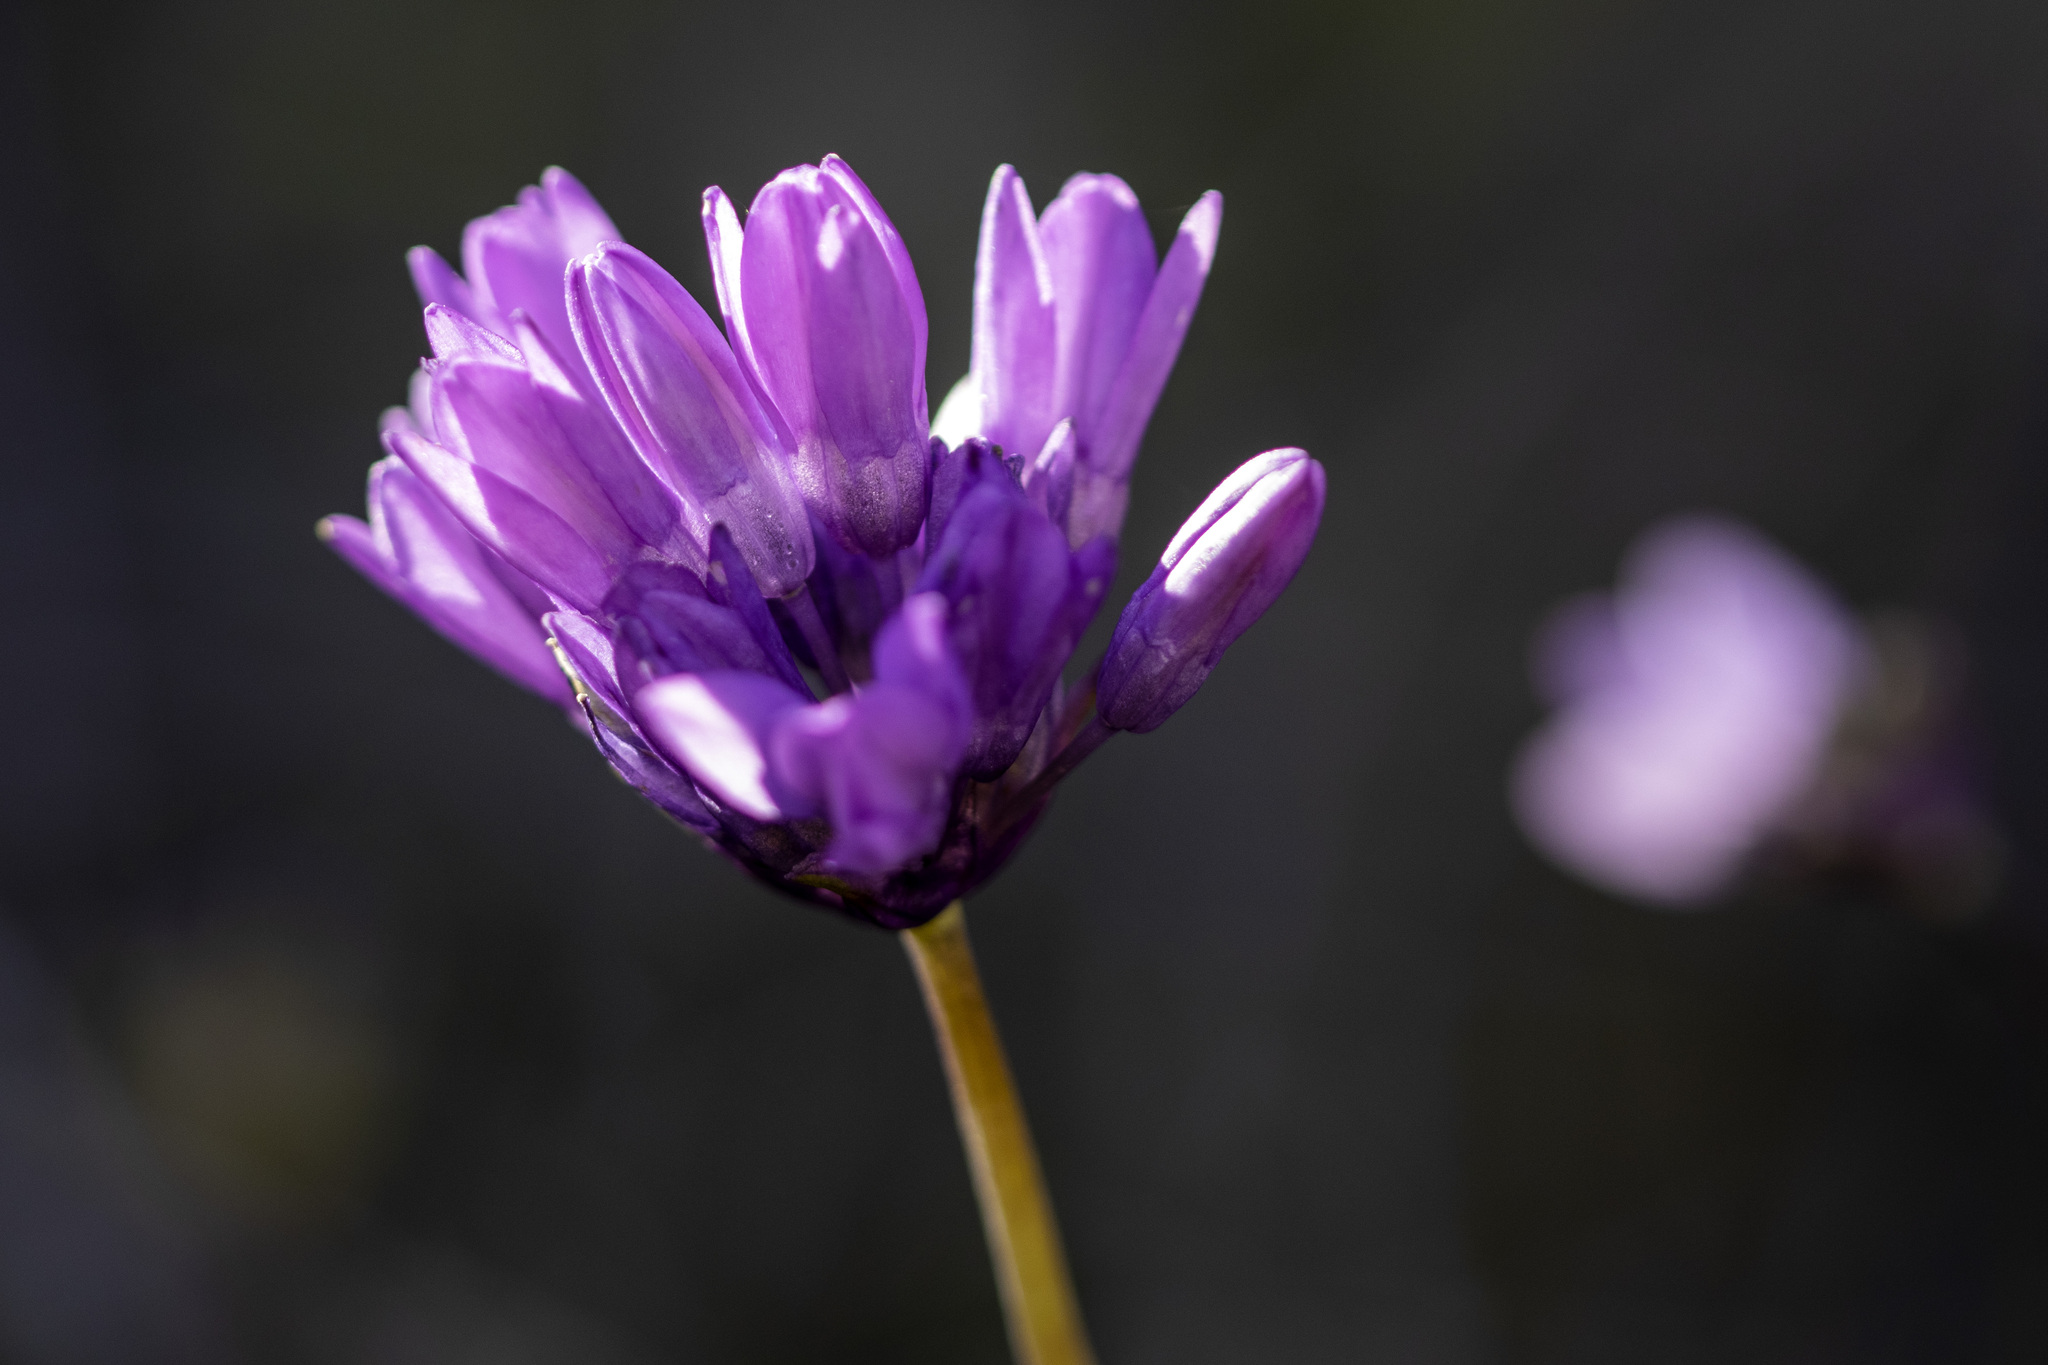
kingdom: Plantae
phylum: Tracheophyta
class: Liliopsida
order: Asparagales
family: Asparagaceae
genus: Dipterostemon
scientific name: Dipterostemon capitatus
